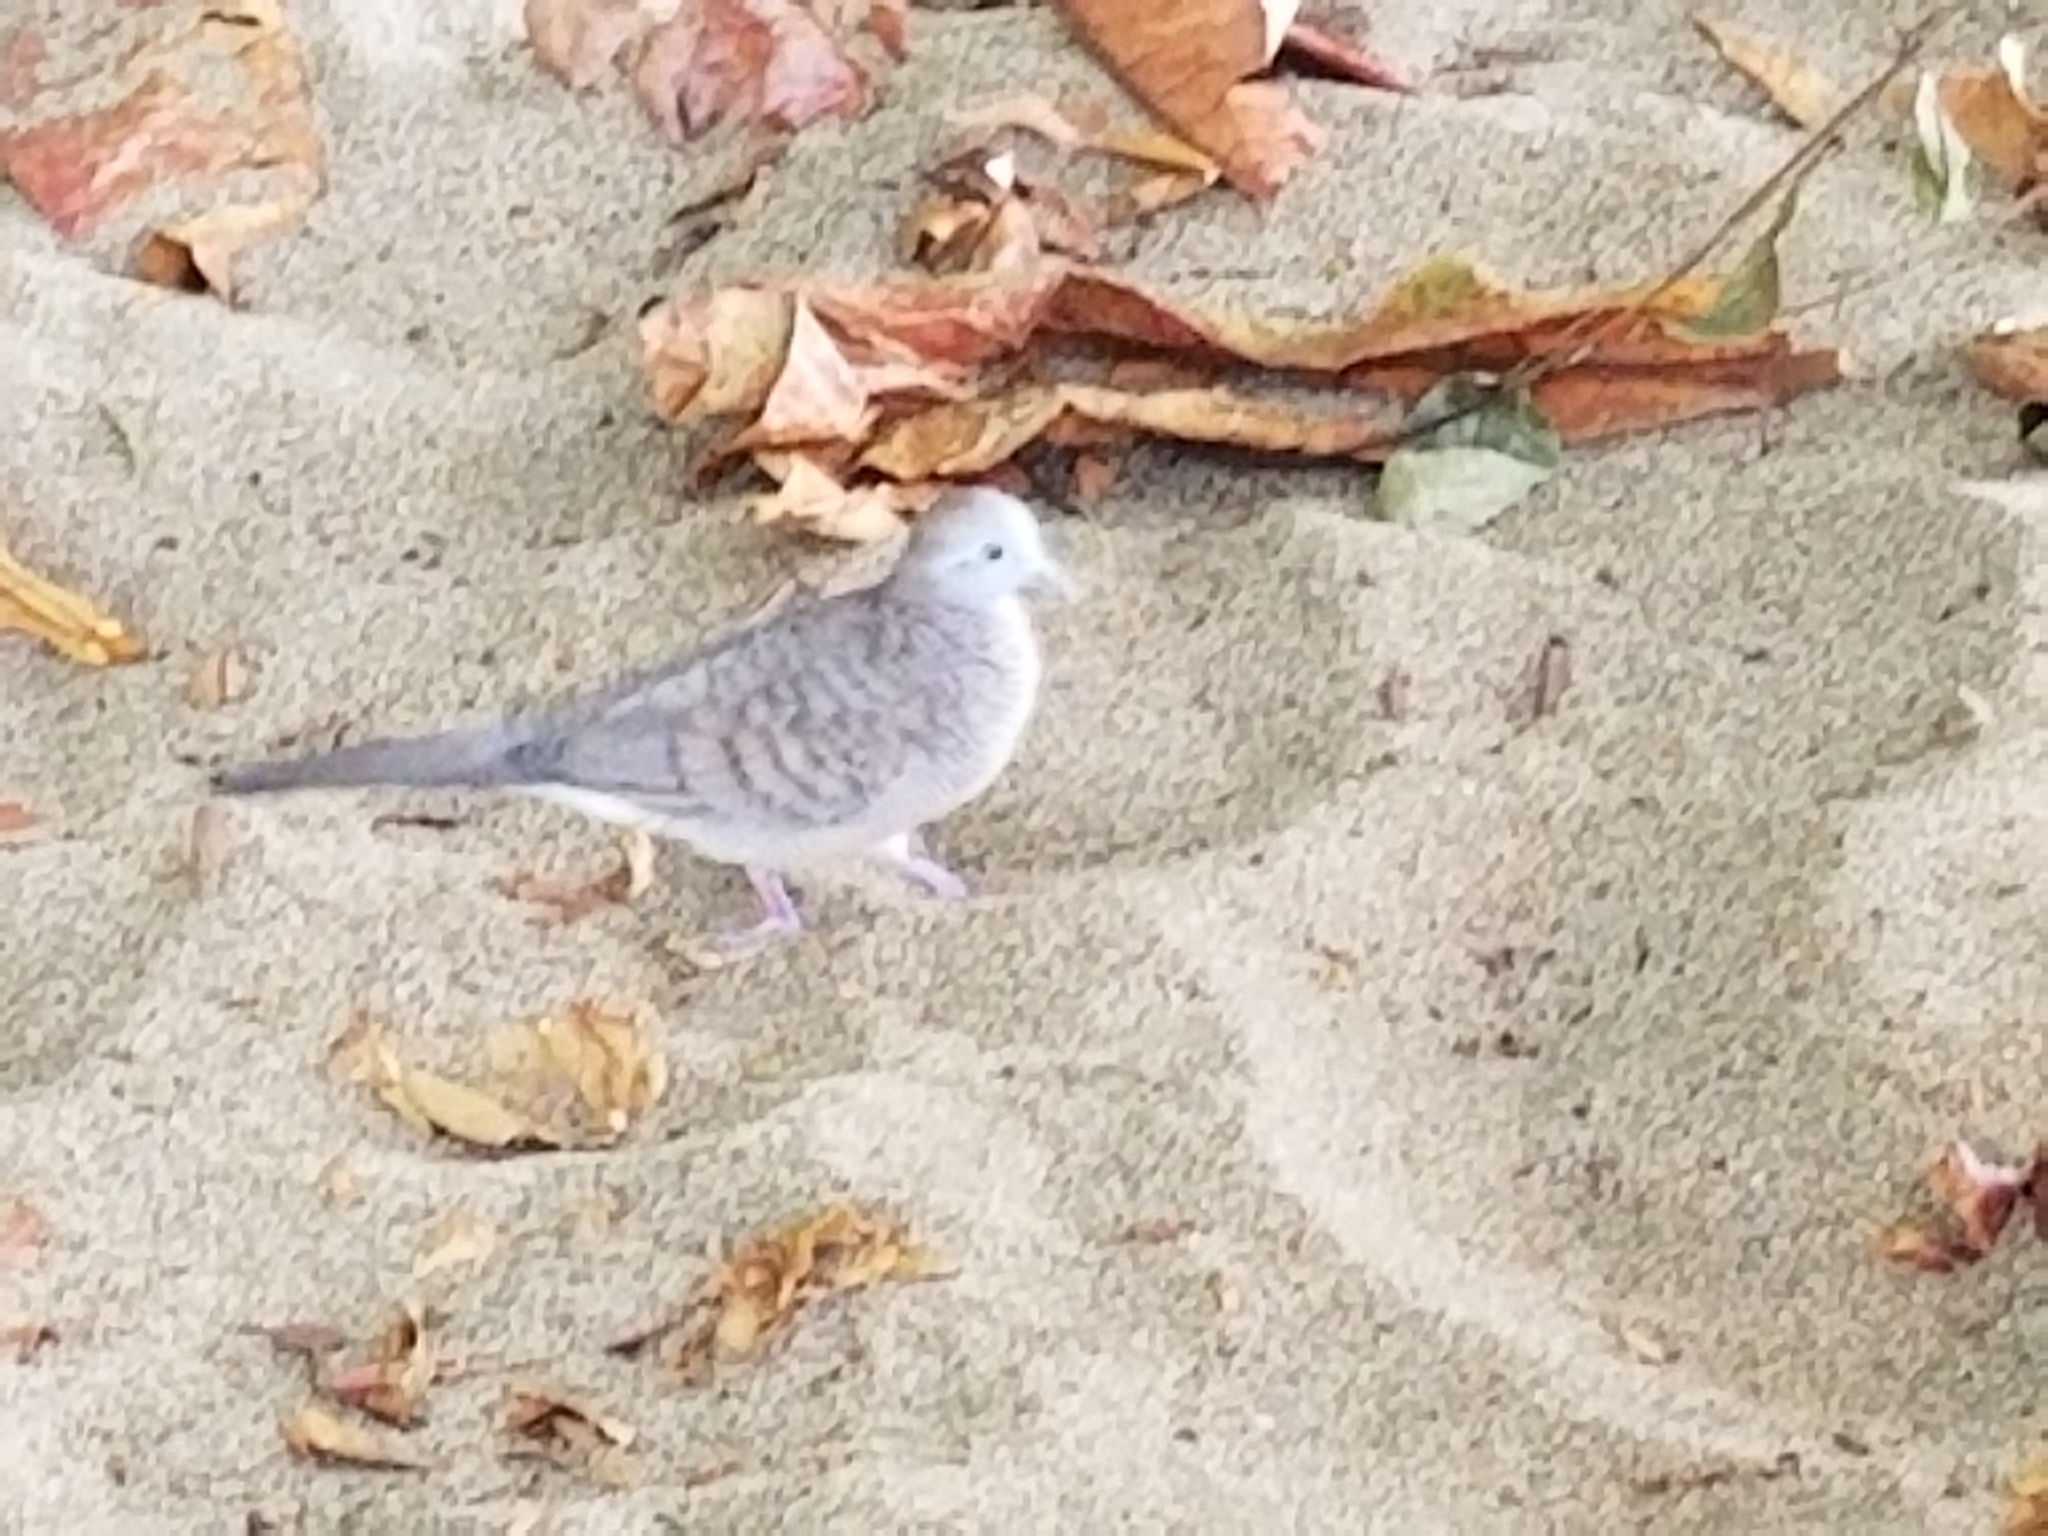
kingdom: Animalia
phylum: Chordata
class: Aves
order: Columbiformes
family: Columbidae
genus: Geopelia
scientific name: Geopelia striata
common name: Zebra dove
